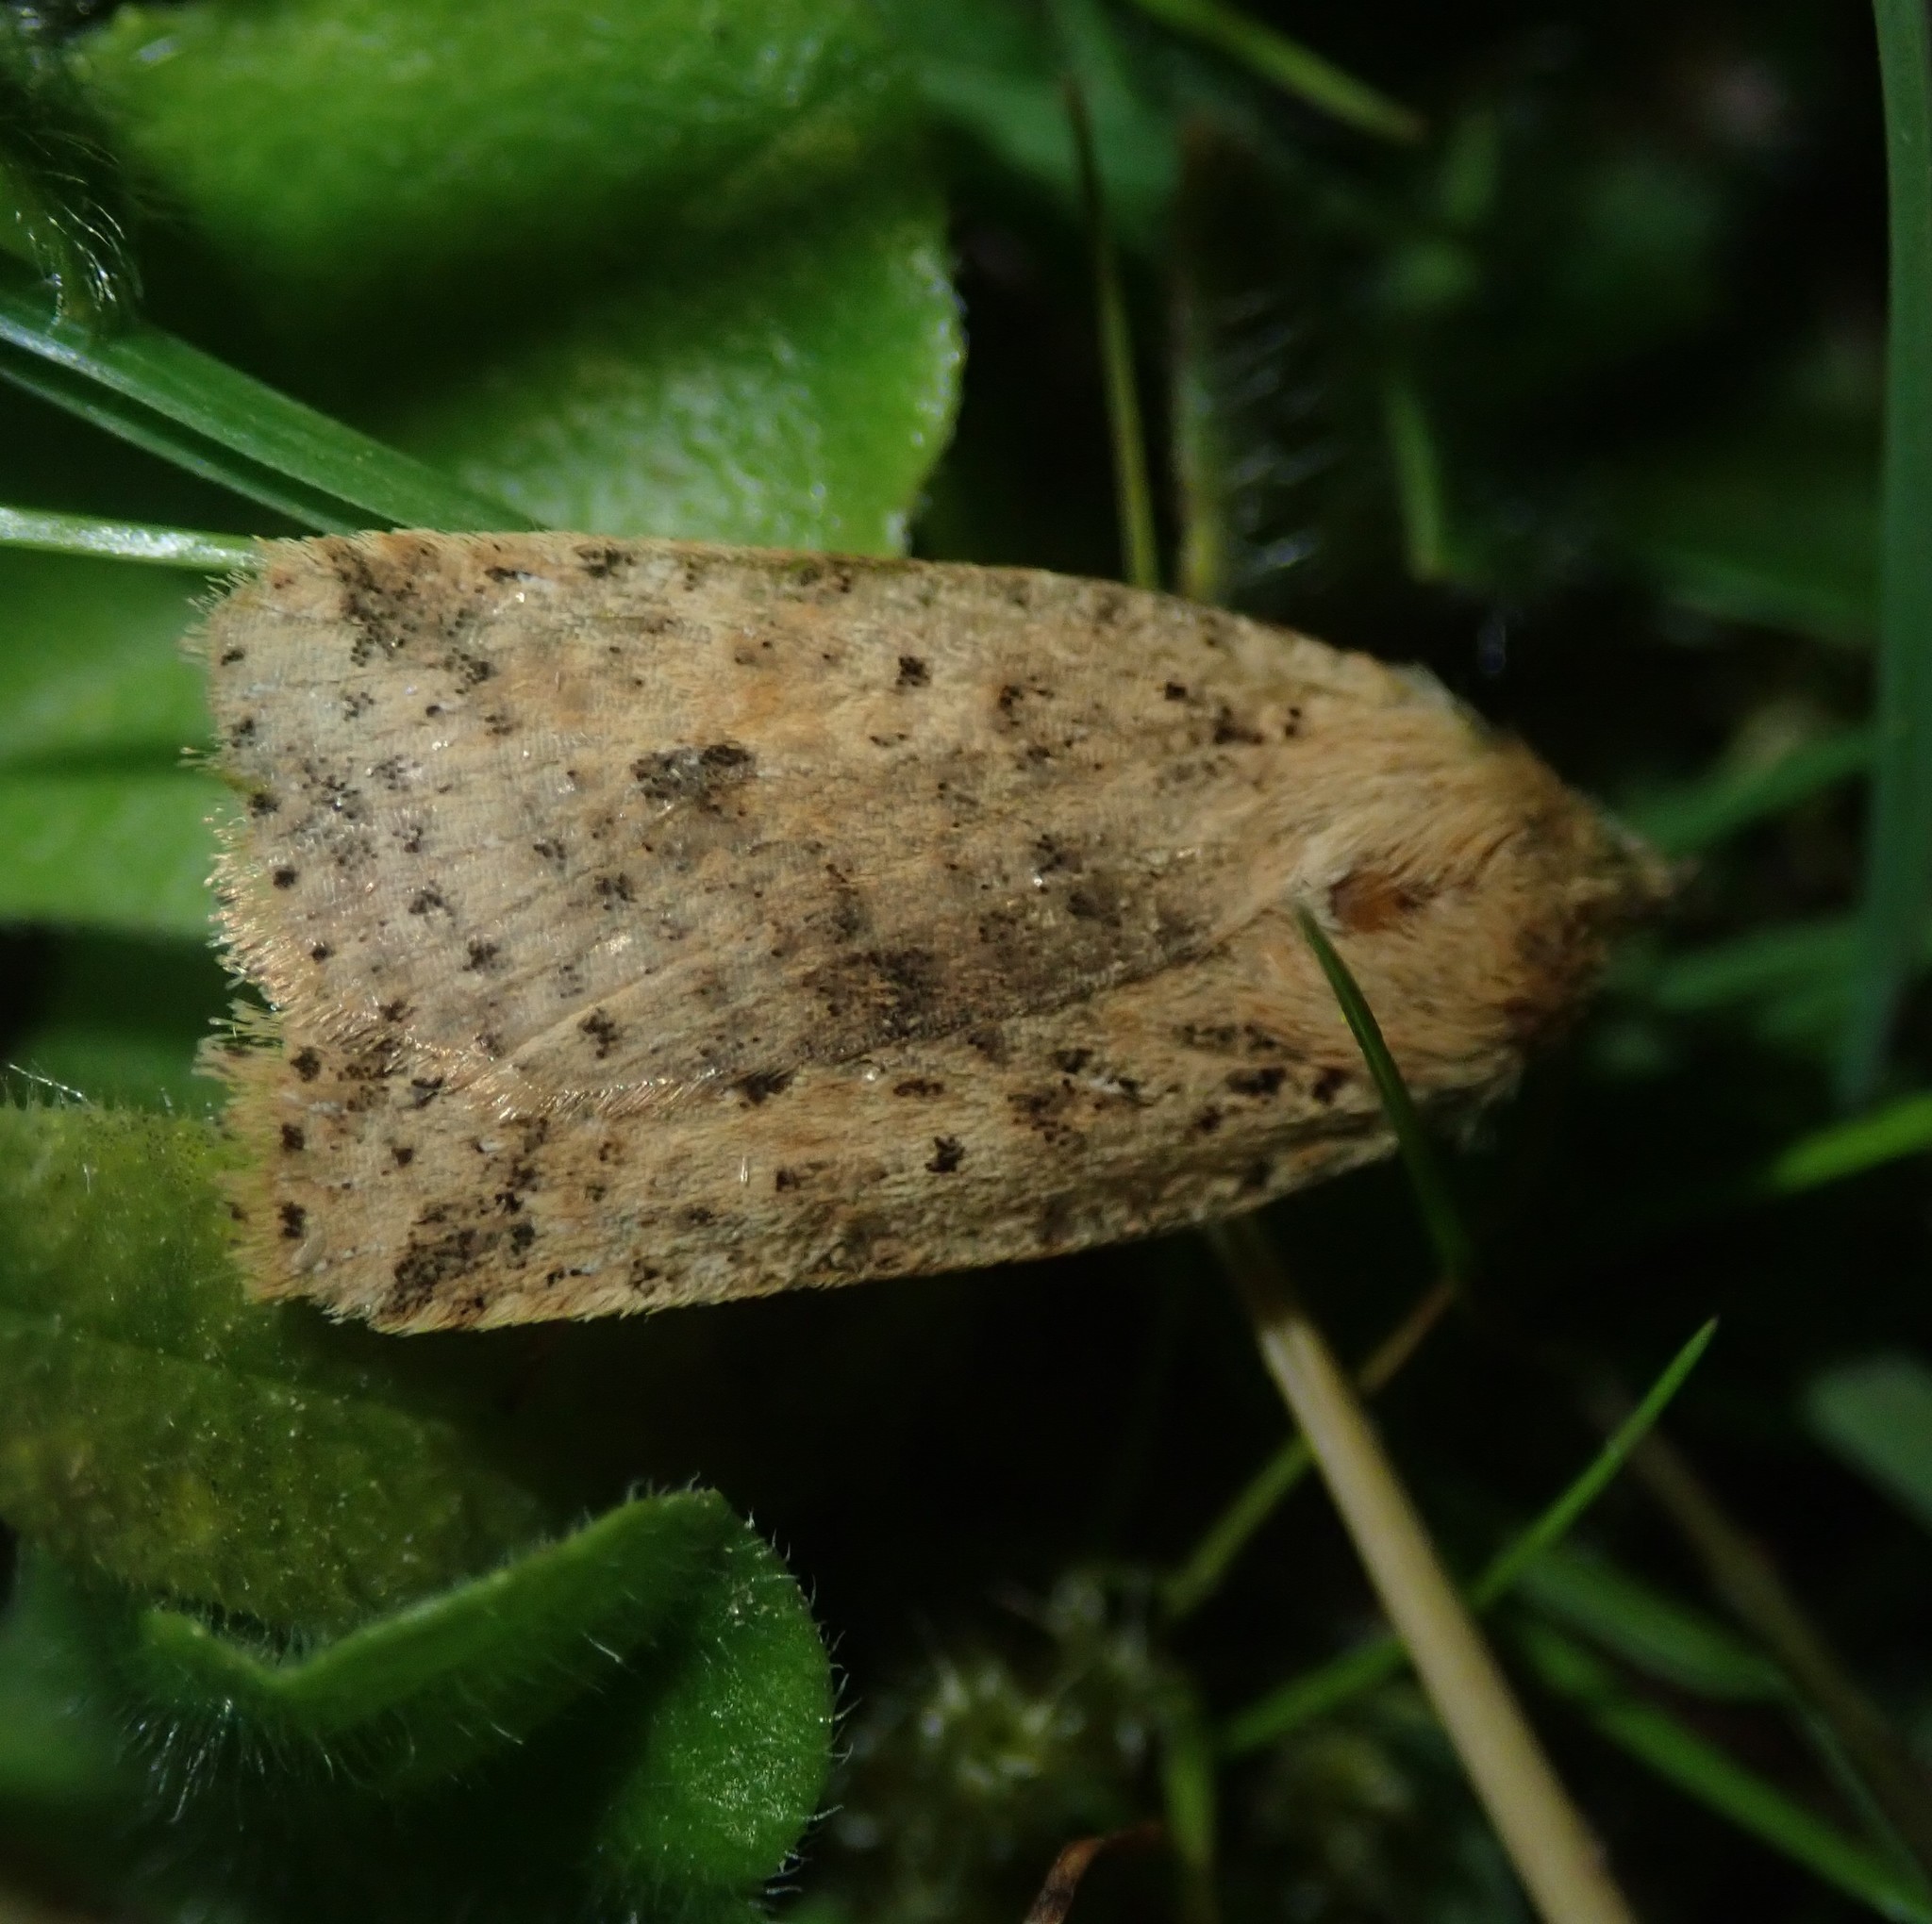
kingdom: Animalia
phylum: Arthropoda
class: Insecta
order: Lepidoptera
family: Noctuidae
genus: Conistra
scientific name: Conistra rubiginea
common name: Dotted chestnut
